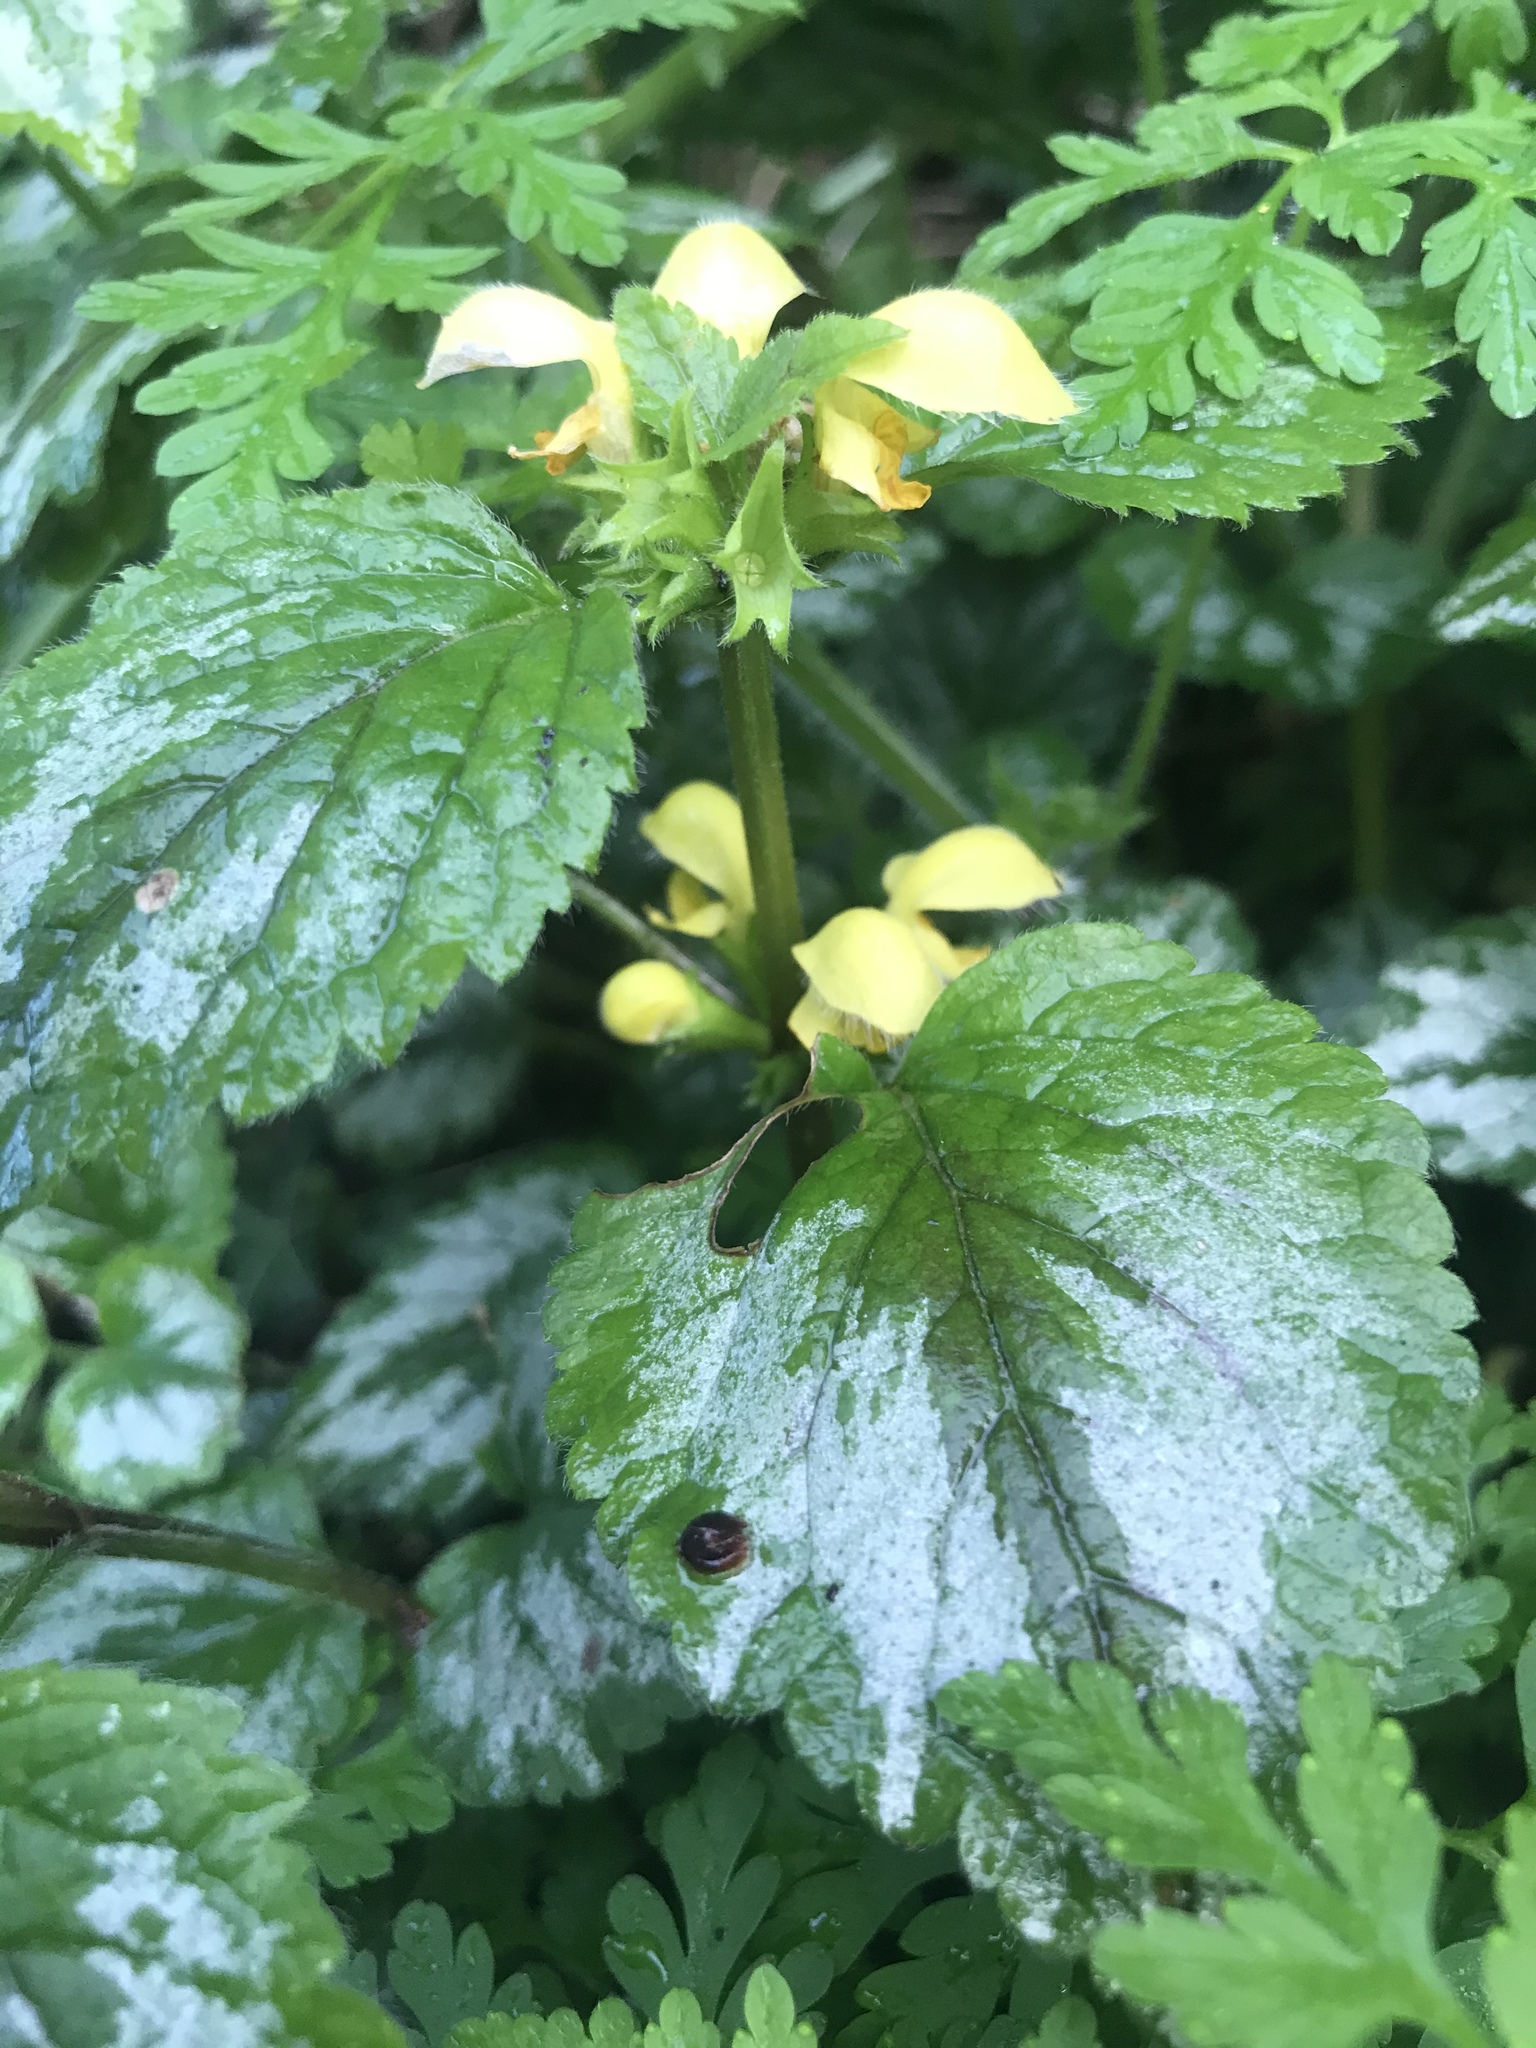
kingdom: Plantae
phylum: Tracheophyta
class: Magnoliopsida
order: Lamiales
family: Lamiaceae
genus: Lamium
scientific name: Lamium galeobdolon
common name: Yellow archangel
